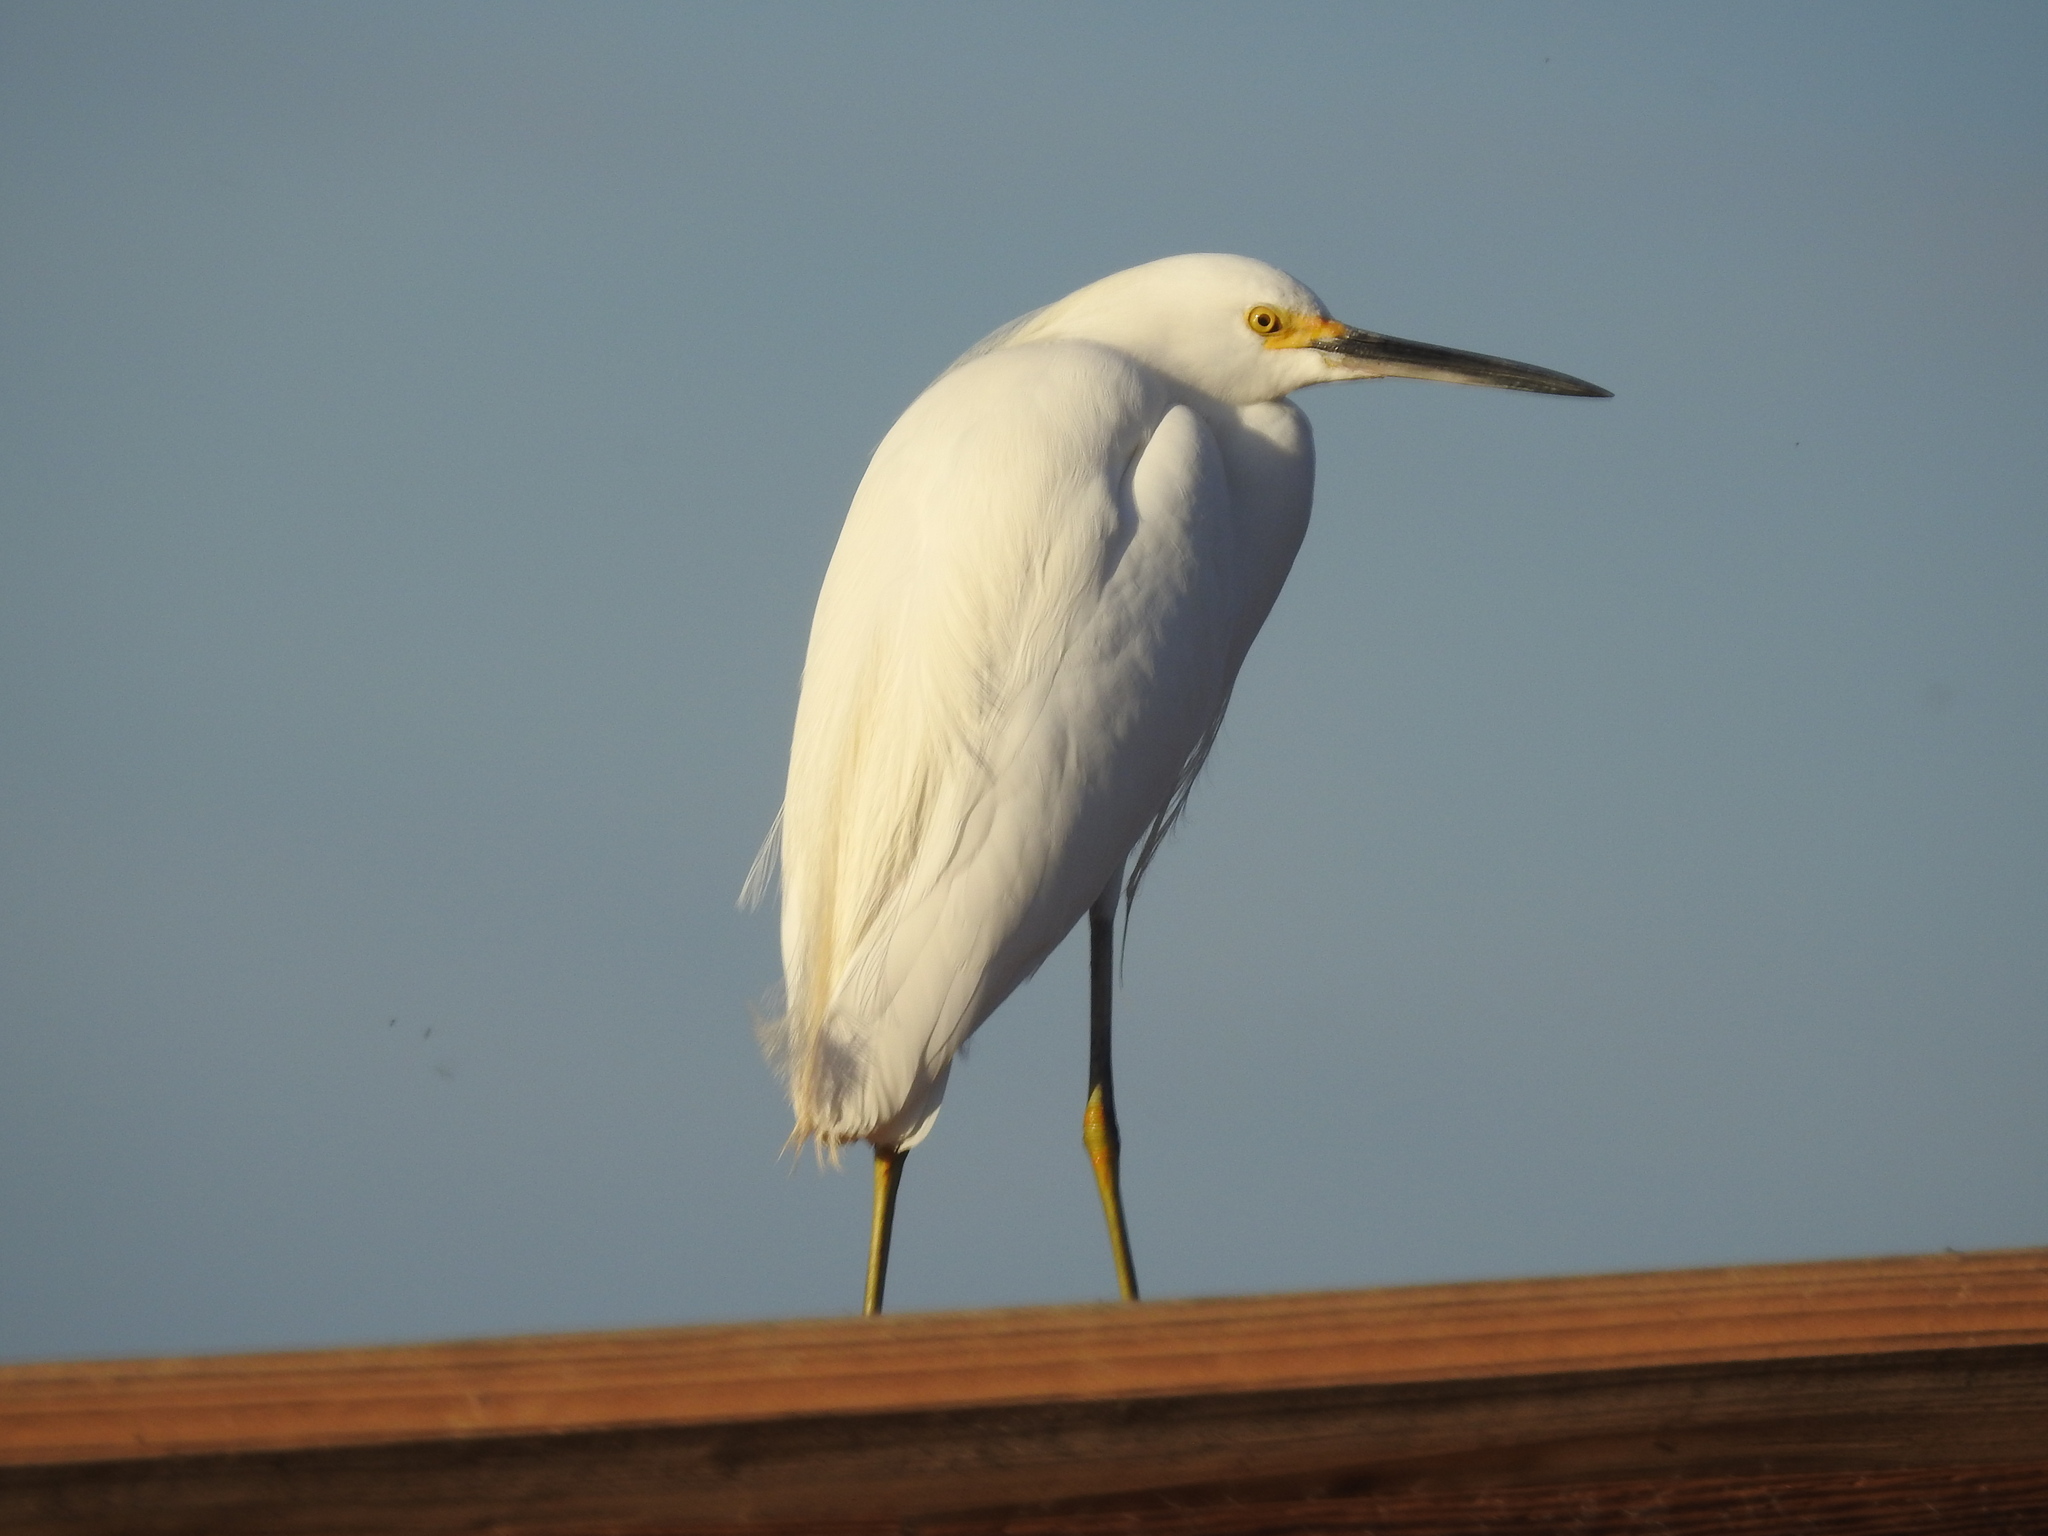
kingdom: Animalia
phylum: Chordata
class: Aves
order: Pelecaniformes
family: Ardeidae
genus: Egretta
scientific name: Egretta thula
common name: Snowy egret
